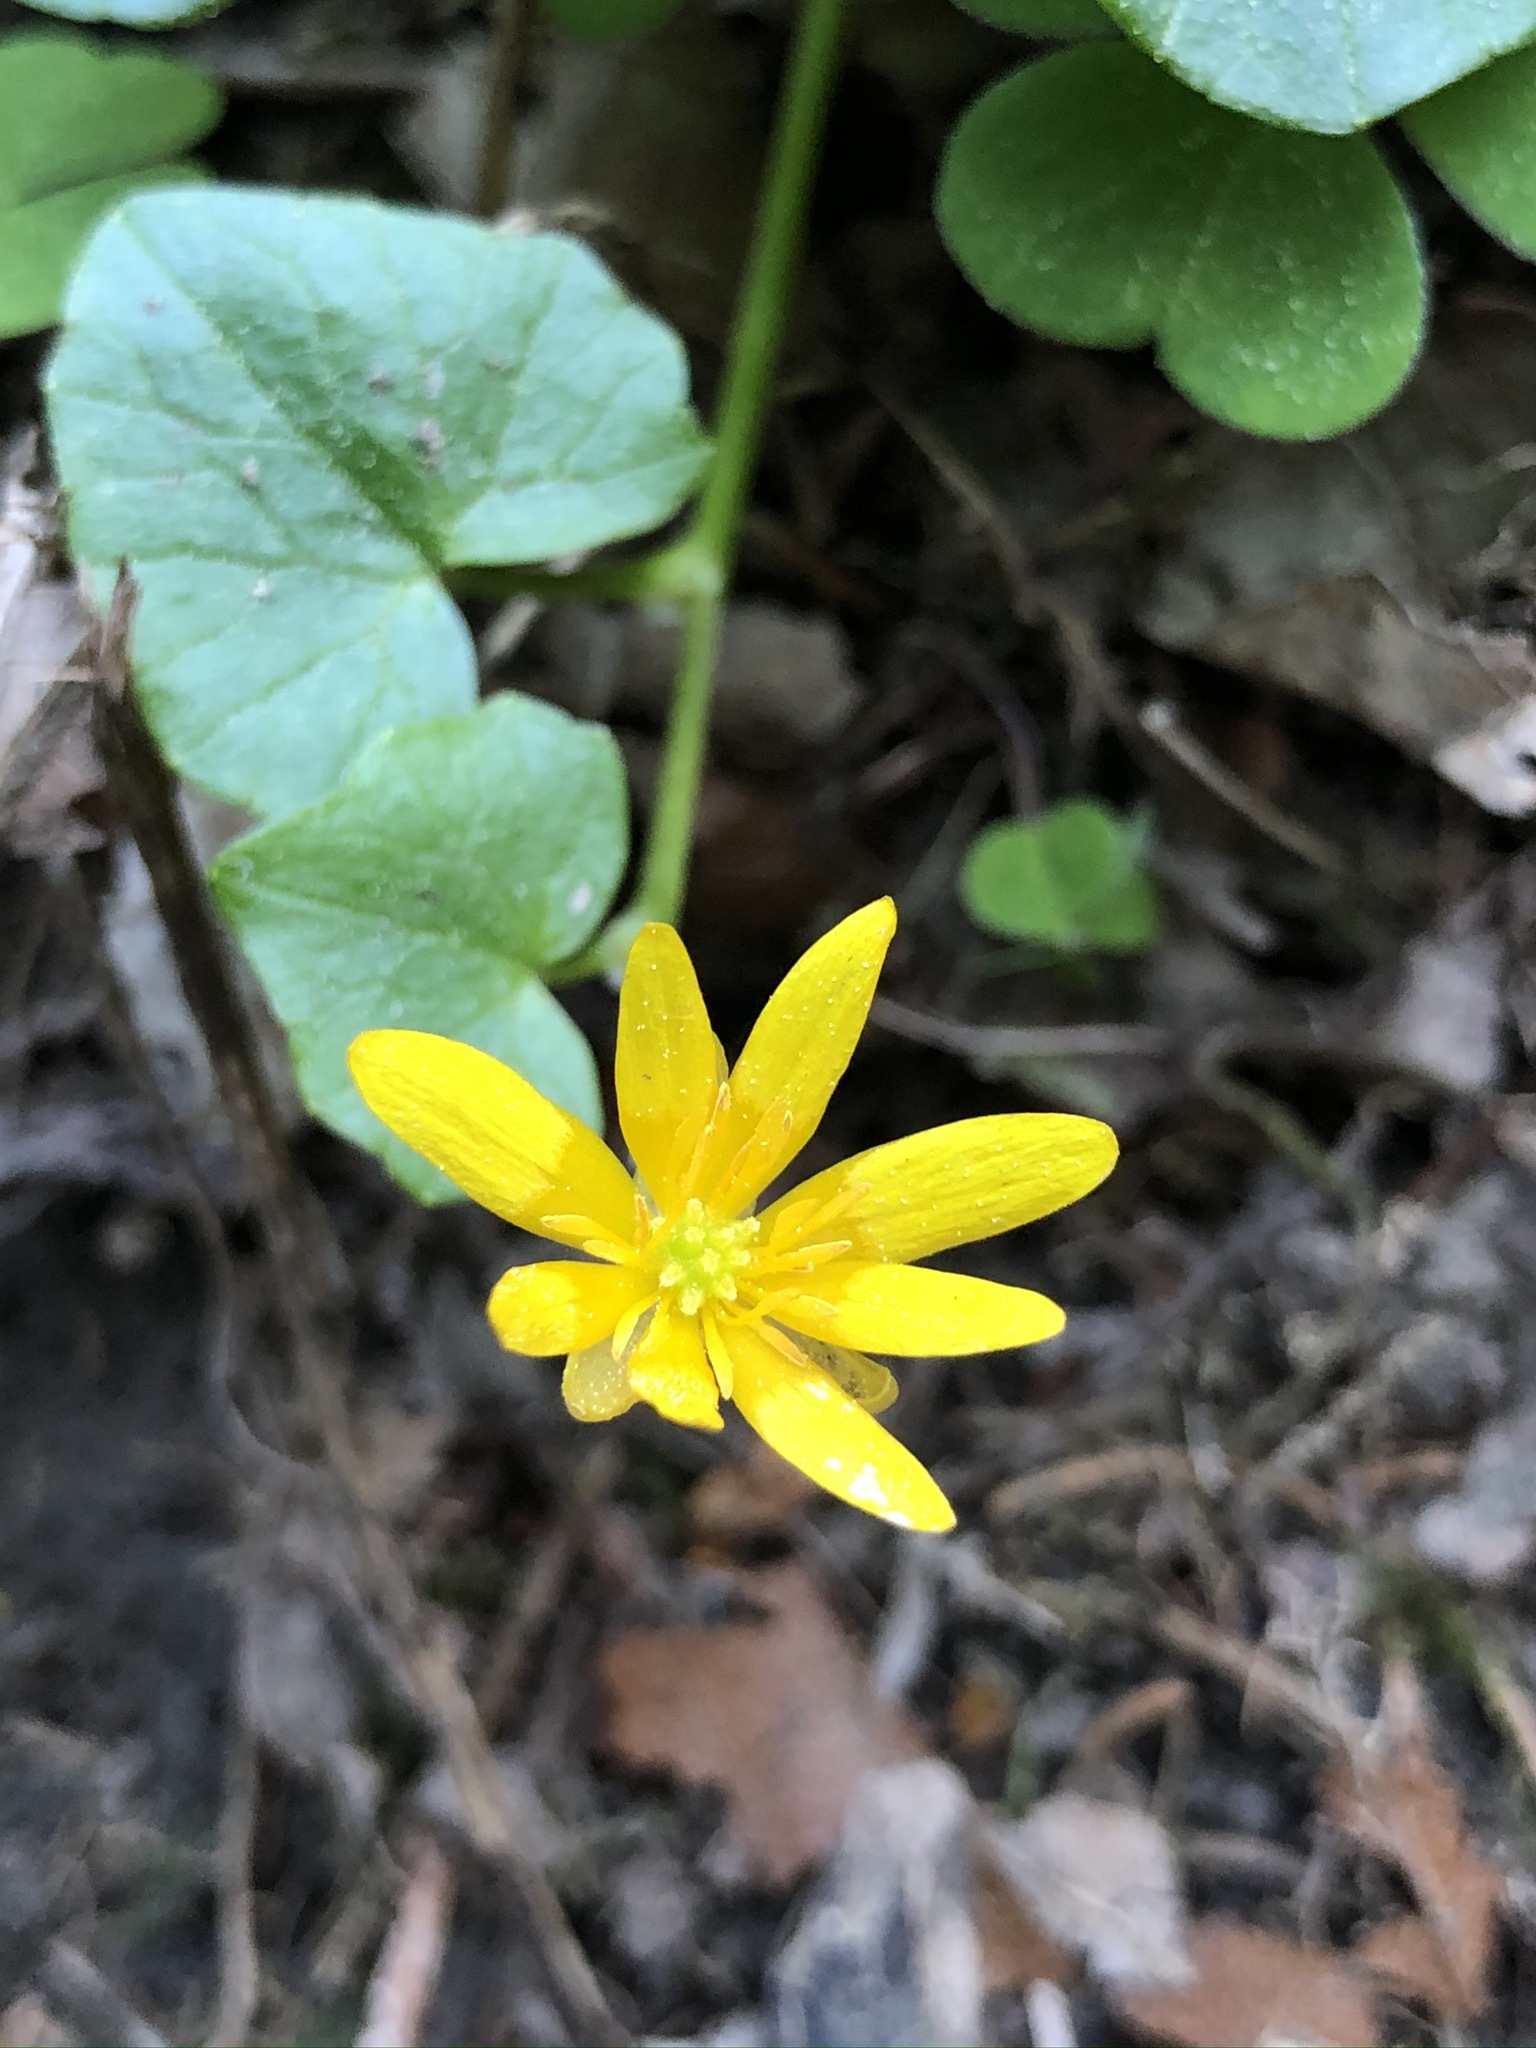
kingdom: Plantae
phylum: Tracheophyta
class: Magnoliopsida
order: Ranunculales
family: Ranunculaceae
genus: Ficaria
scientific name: Ficaria verna
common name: Lesser celandine
